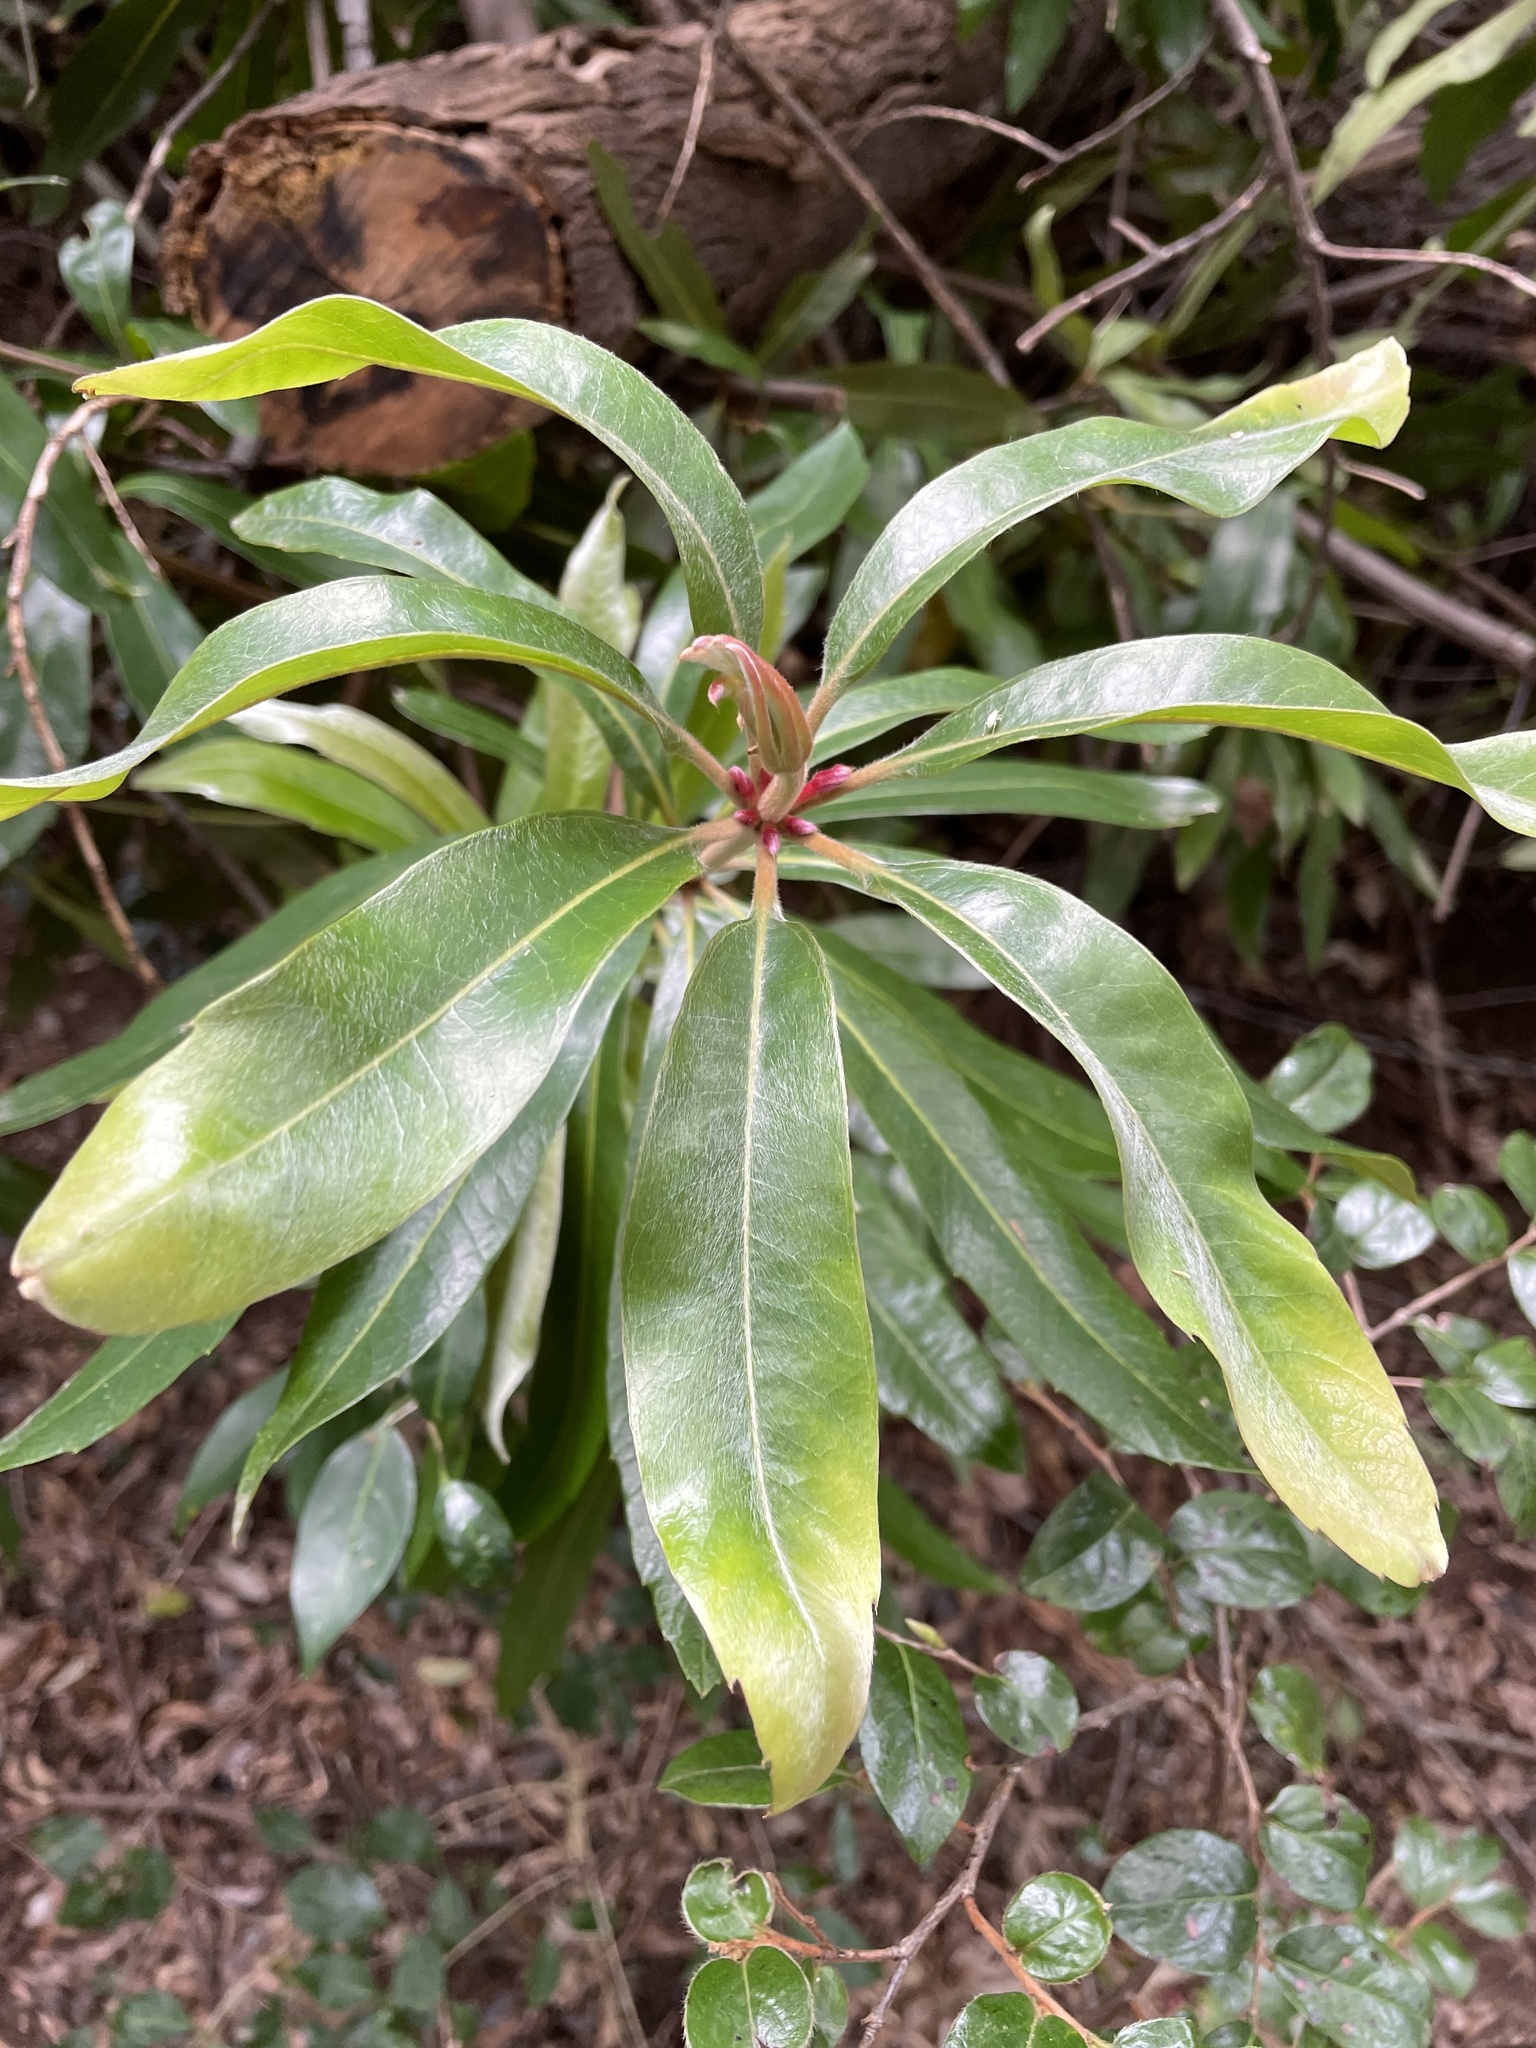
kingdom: Plantae
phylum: Tracheophyta
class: Magnoliopsida
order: Proteales
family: Proteaceae
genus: Brabejum
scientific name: Brabejum stellatifolium
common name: Wild almond
